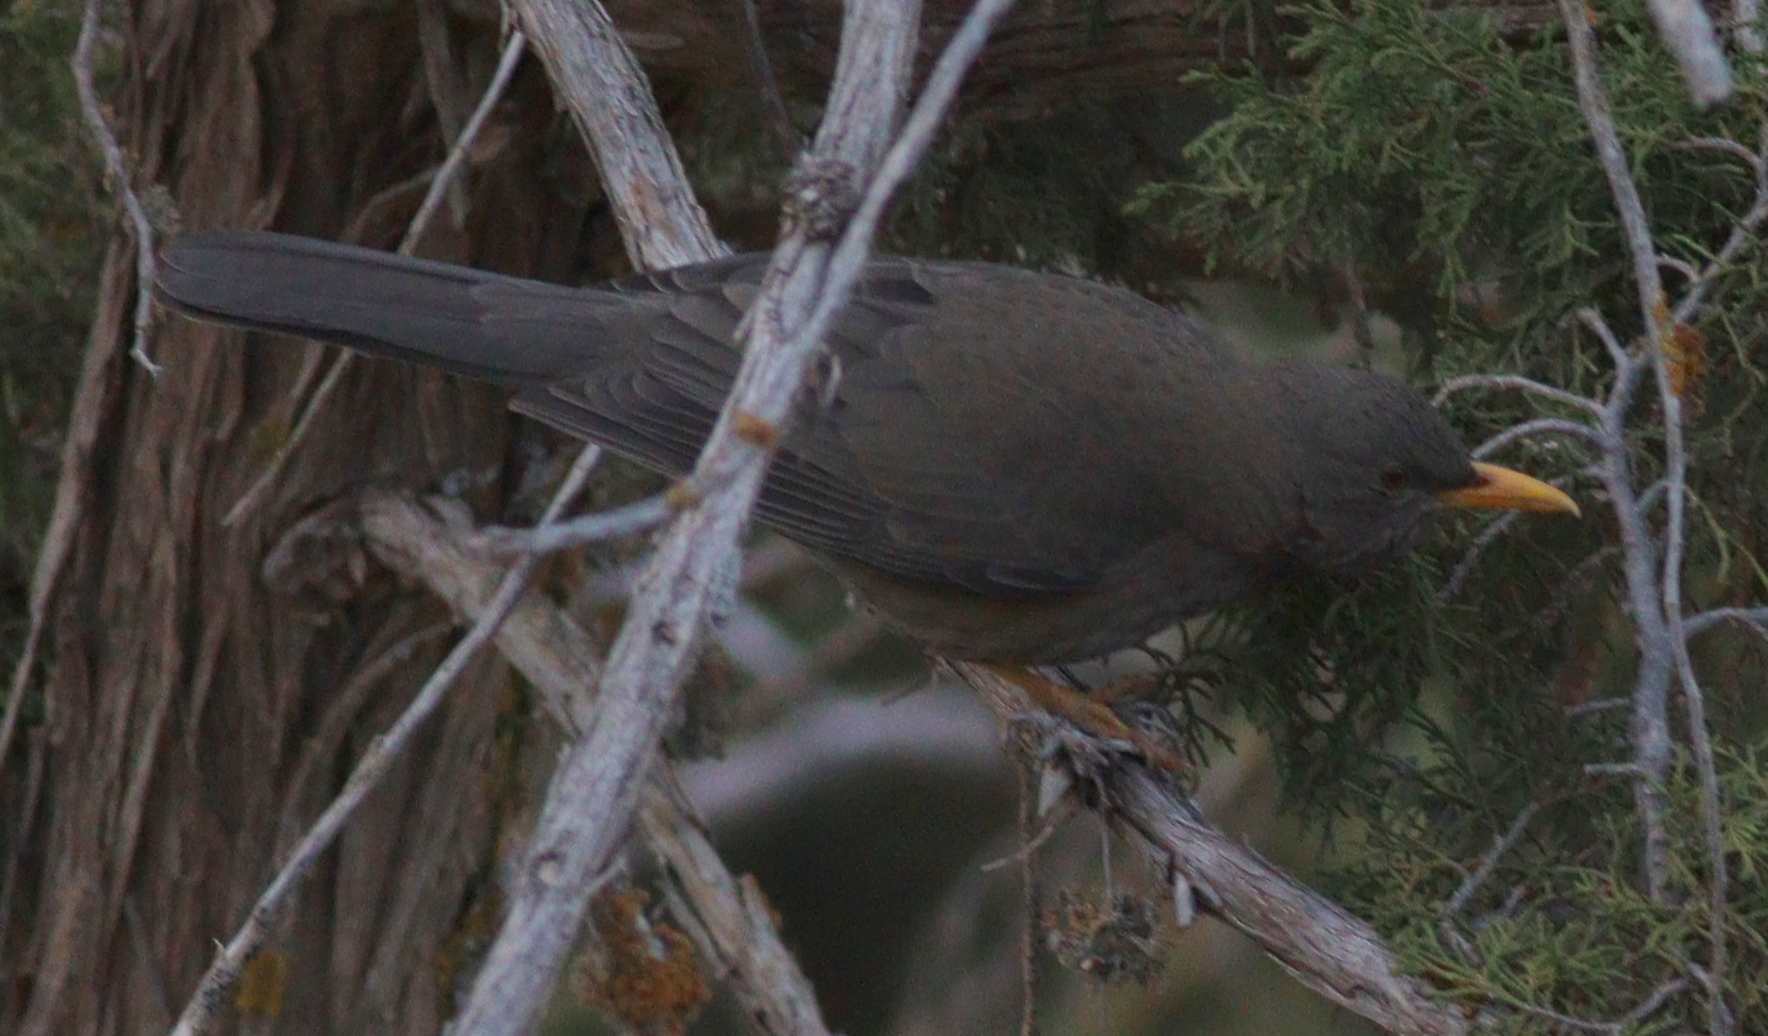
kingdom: Animalia
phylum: Chordata
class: Aves
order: Passeriformes
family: Turdidae
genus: Turdus
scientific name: Turdus menachensis
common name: Yemen thrush
